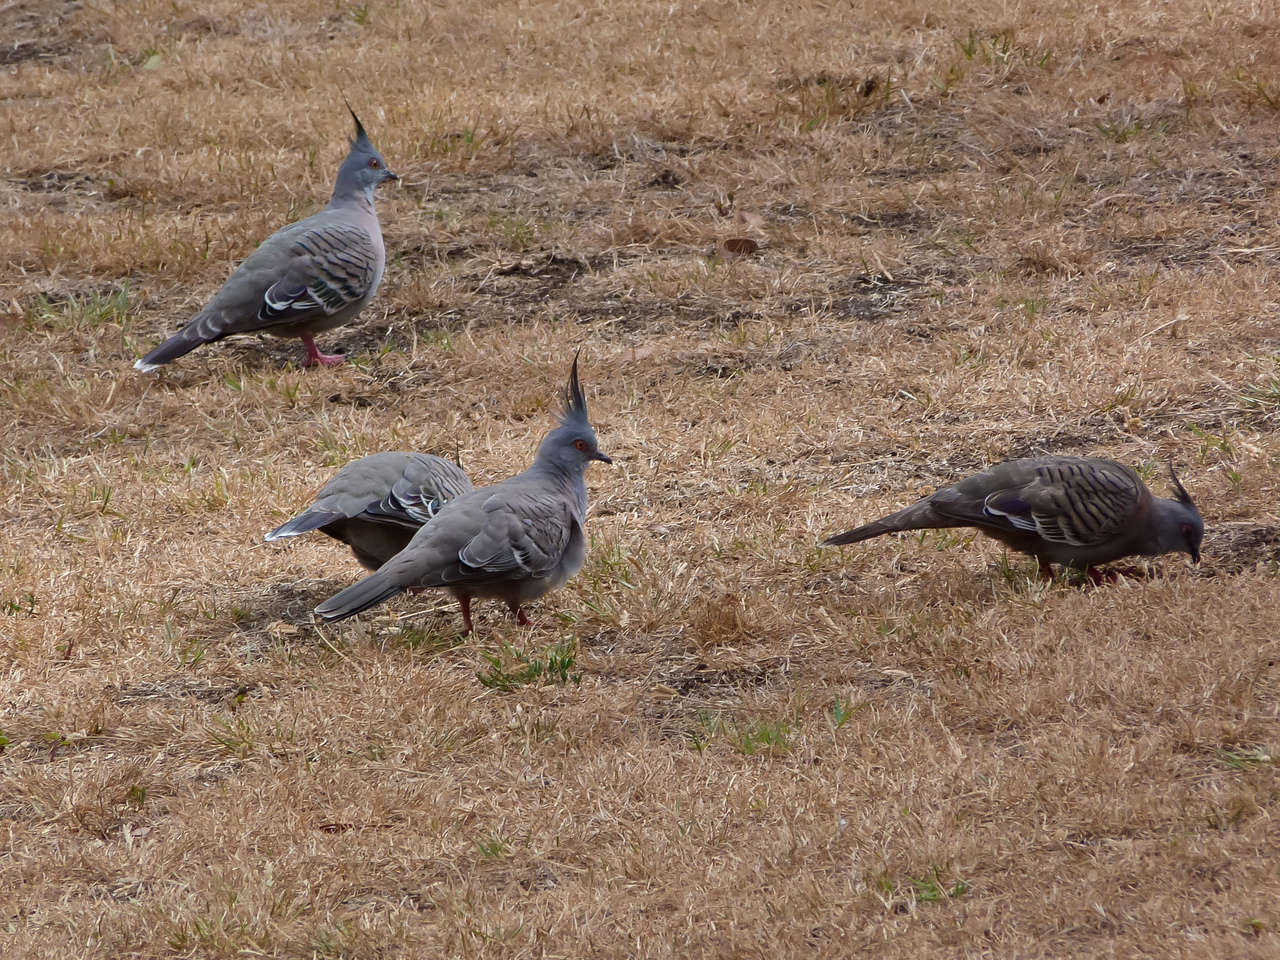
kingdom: Animalia
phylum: Chordata
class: Aves
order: Columbiformes
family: Columbidae
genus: Ocyphaps
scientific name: Ocyphaps lophotes
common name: Crested pigeon
